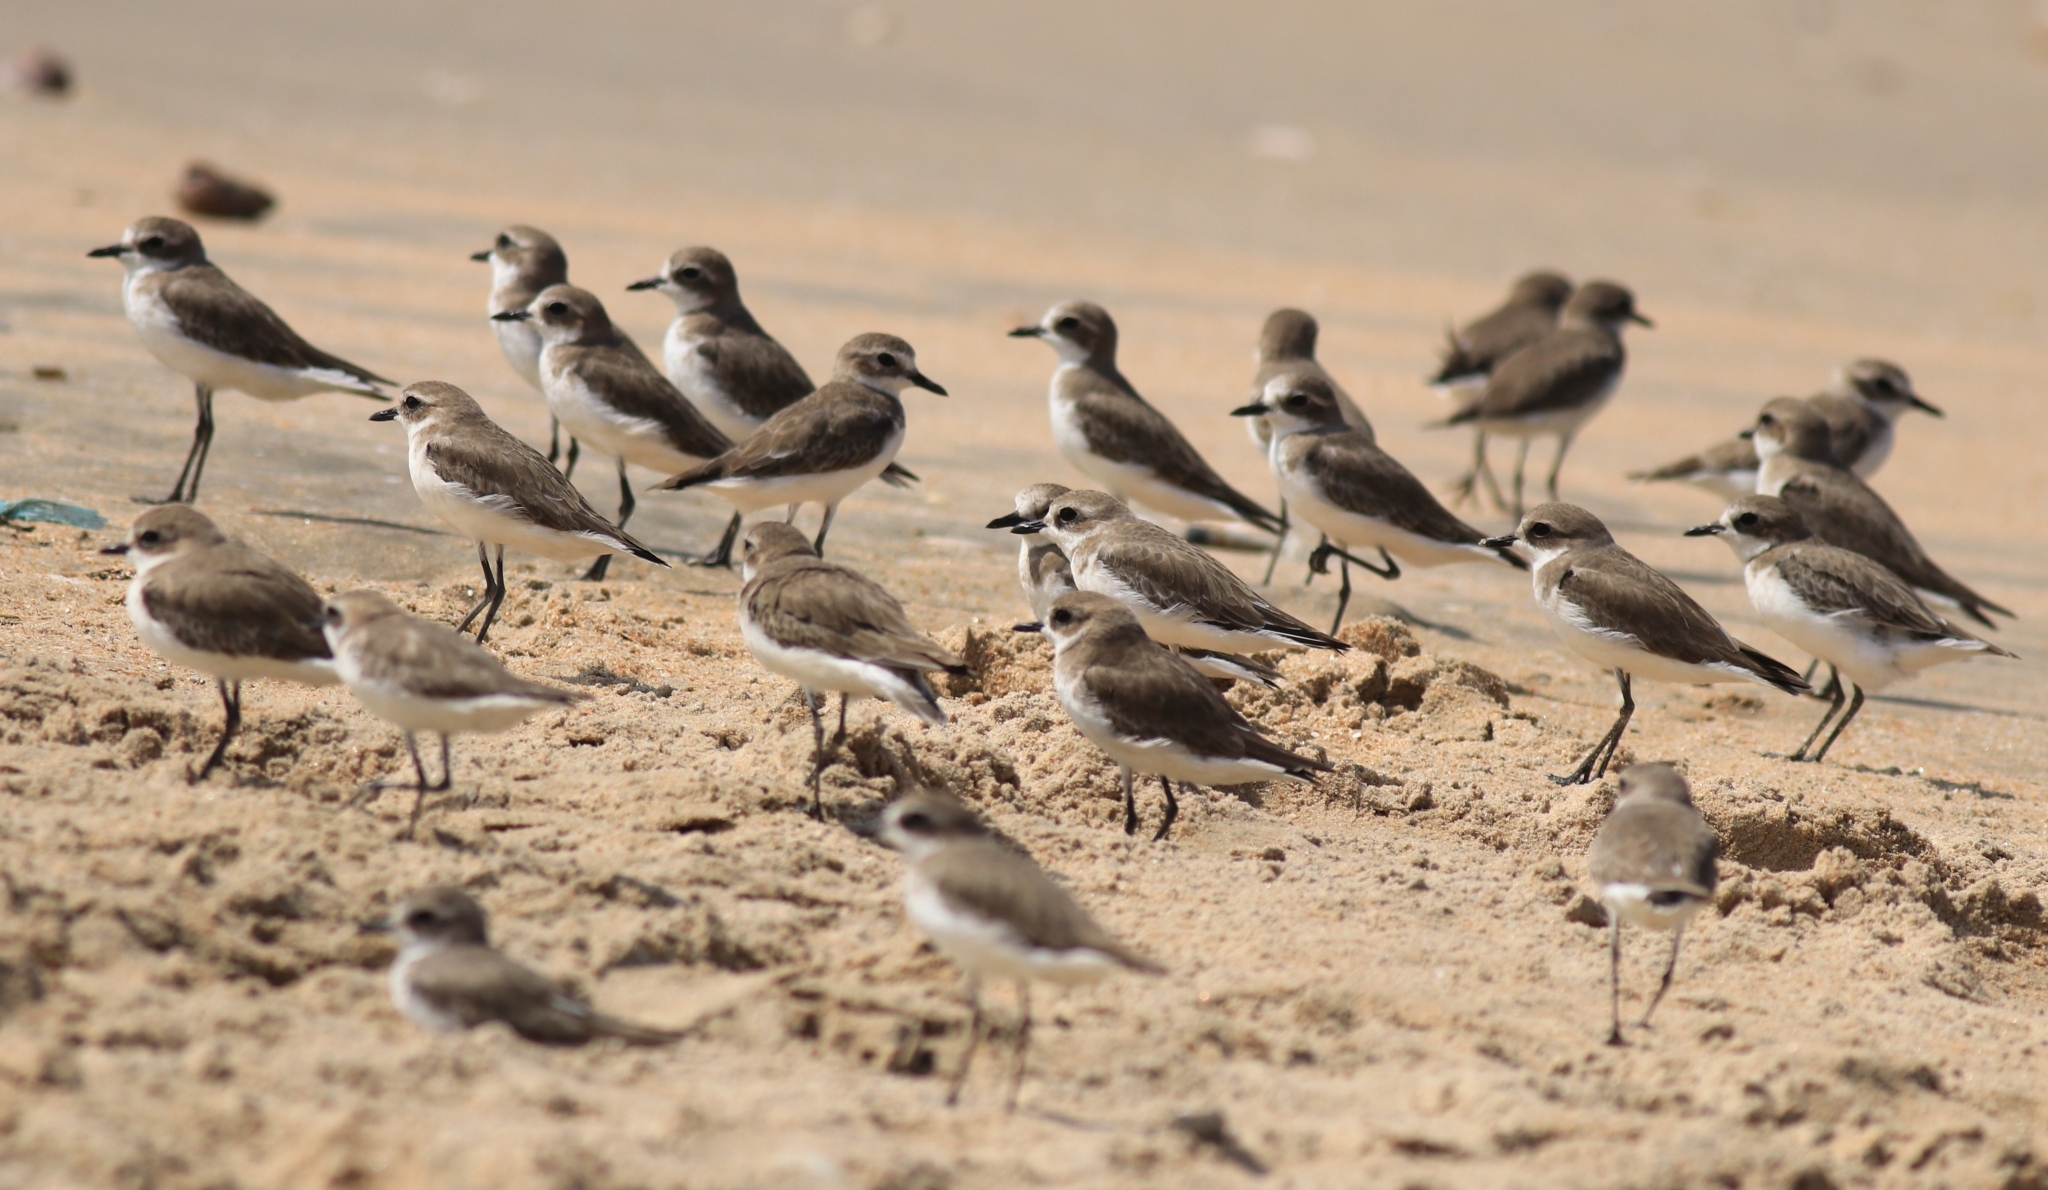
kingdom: Animalia
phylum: Chordata
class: Aves
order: Charadriiformes
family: Charadriidae
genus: Anarhynchus
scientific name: Anarhynchus
